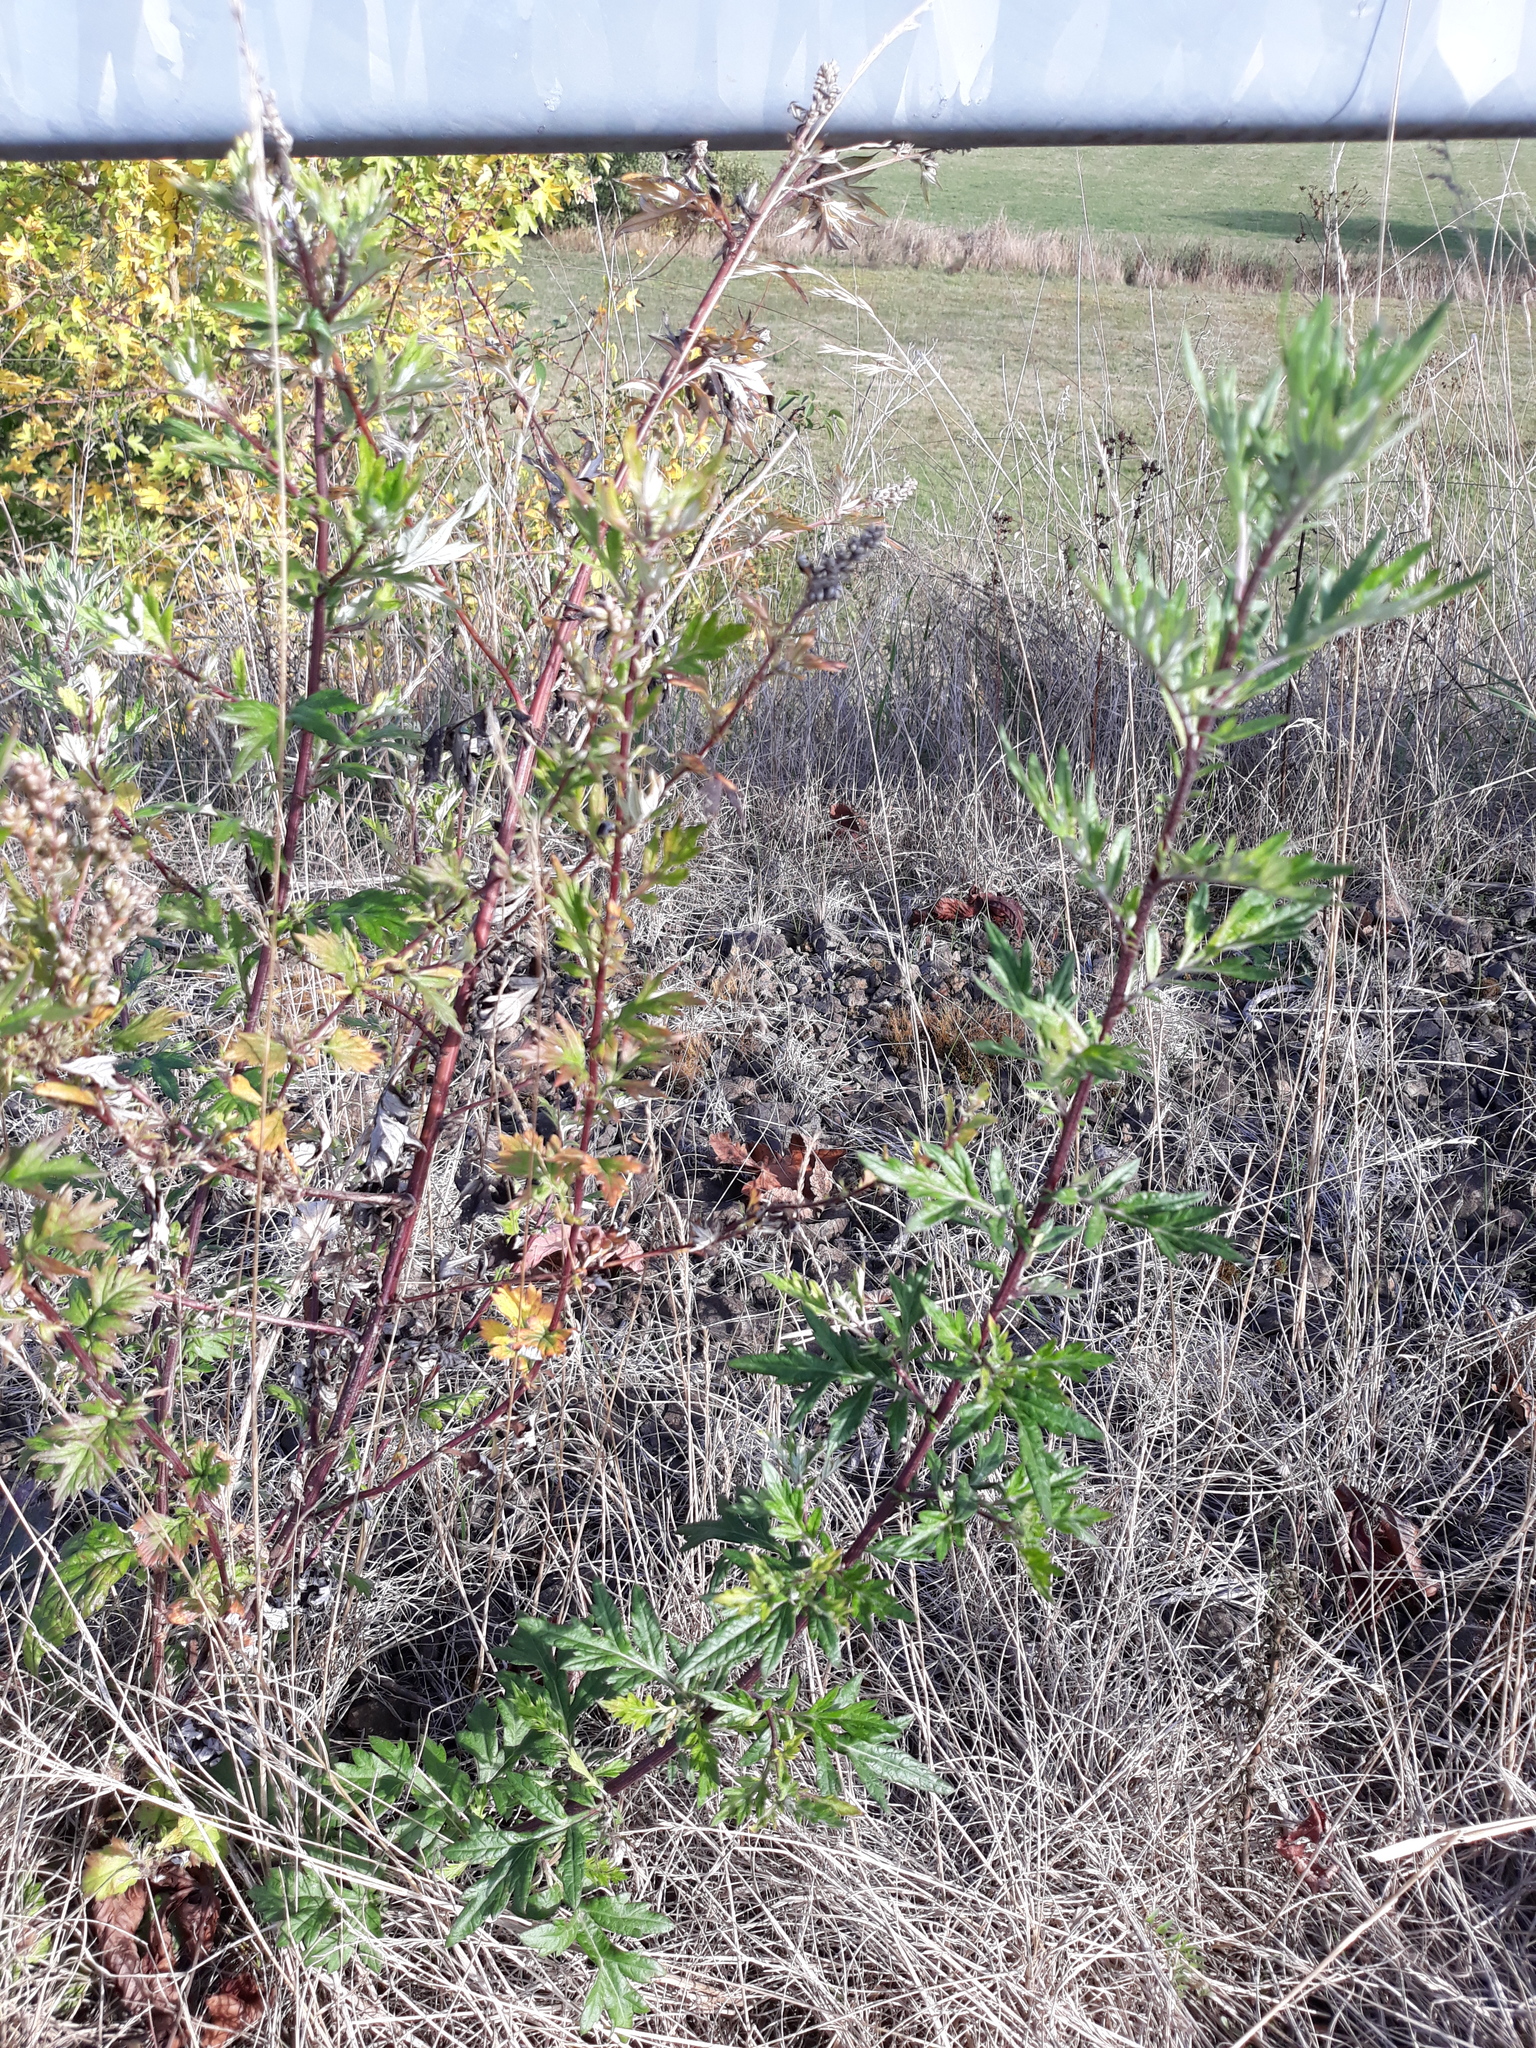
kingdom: Plantae
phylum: Tracheophyta
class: Magnoliopsida
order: Asterales
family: Asteraceae
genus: Artemisia
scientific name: Artemisia vulgaris
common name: Mugwort
